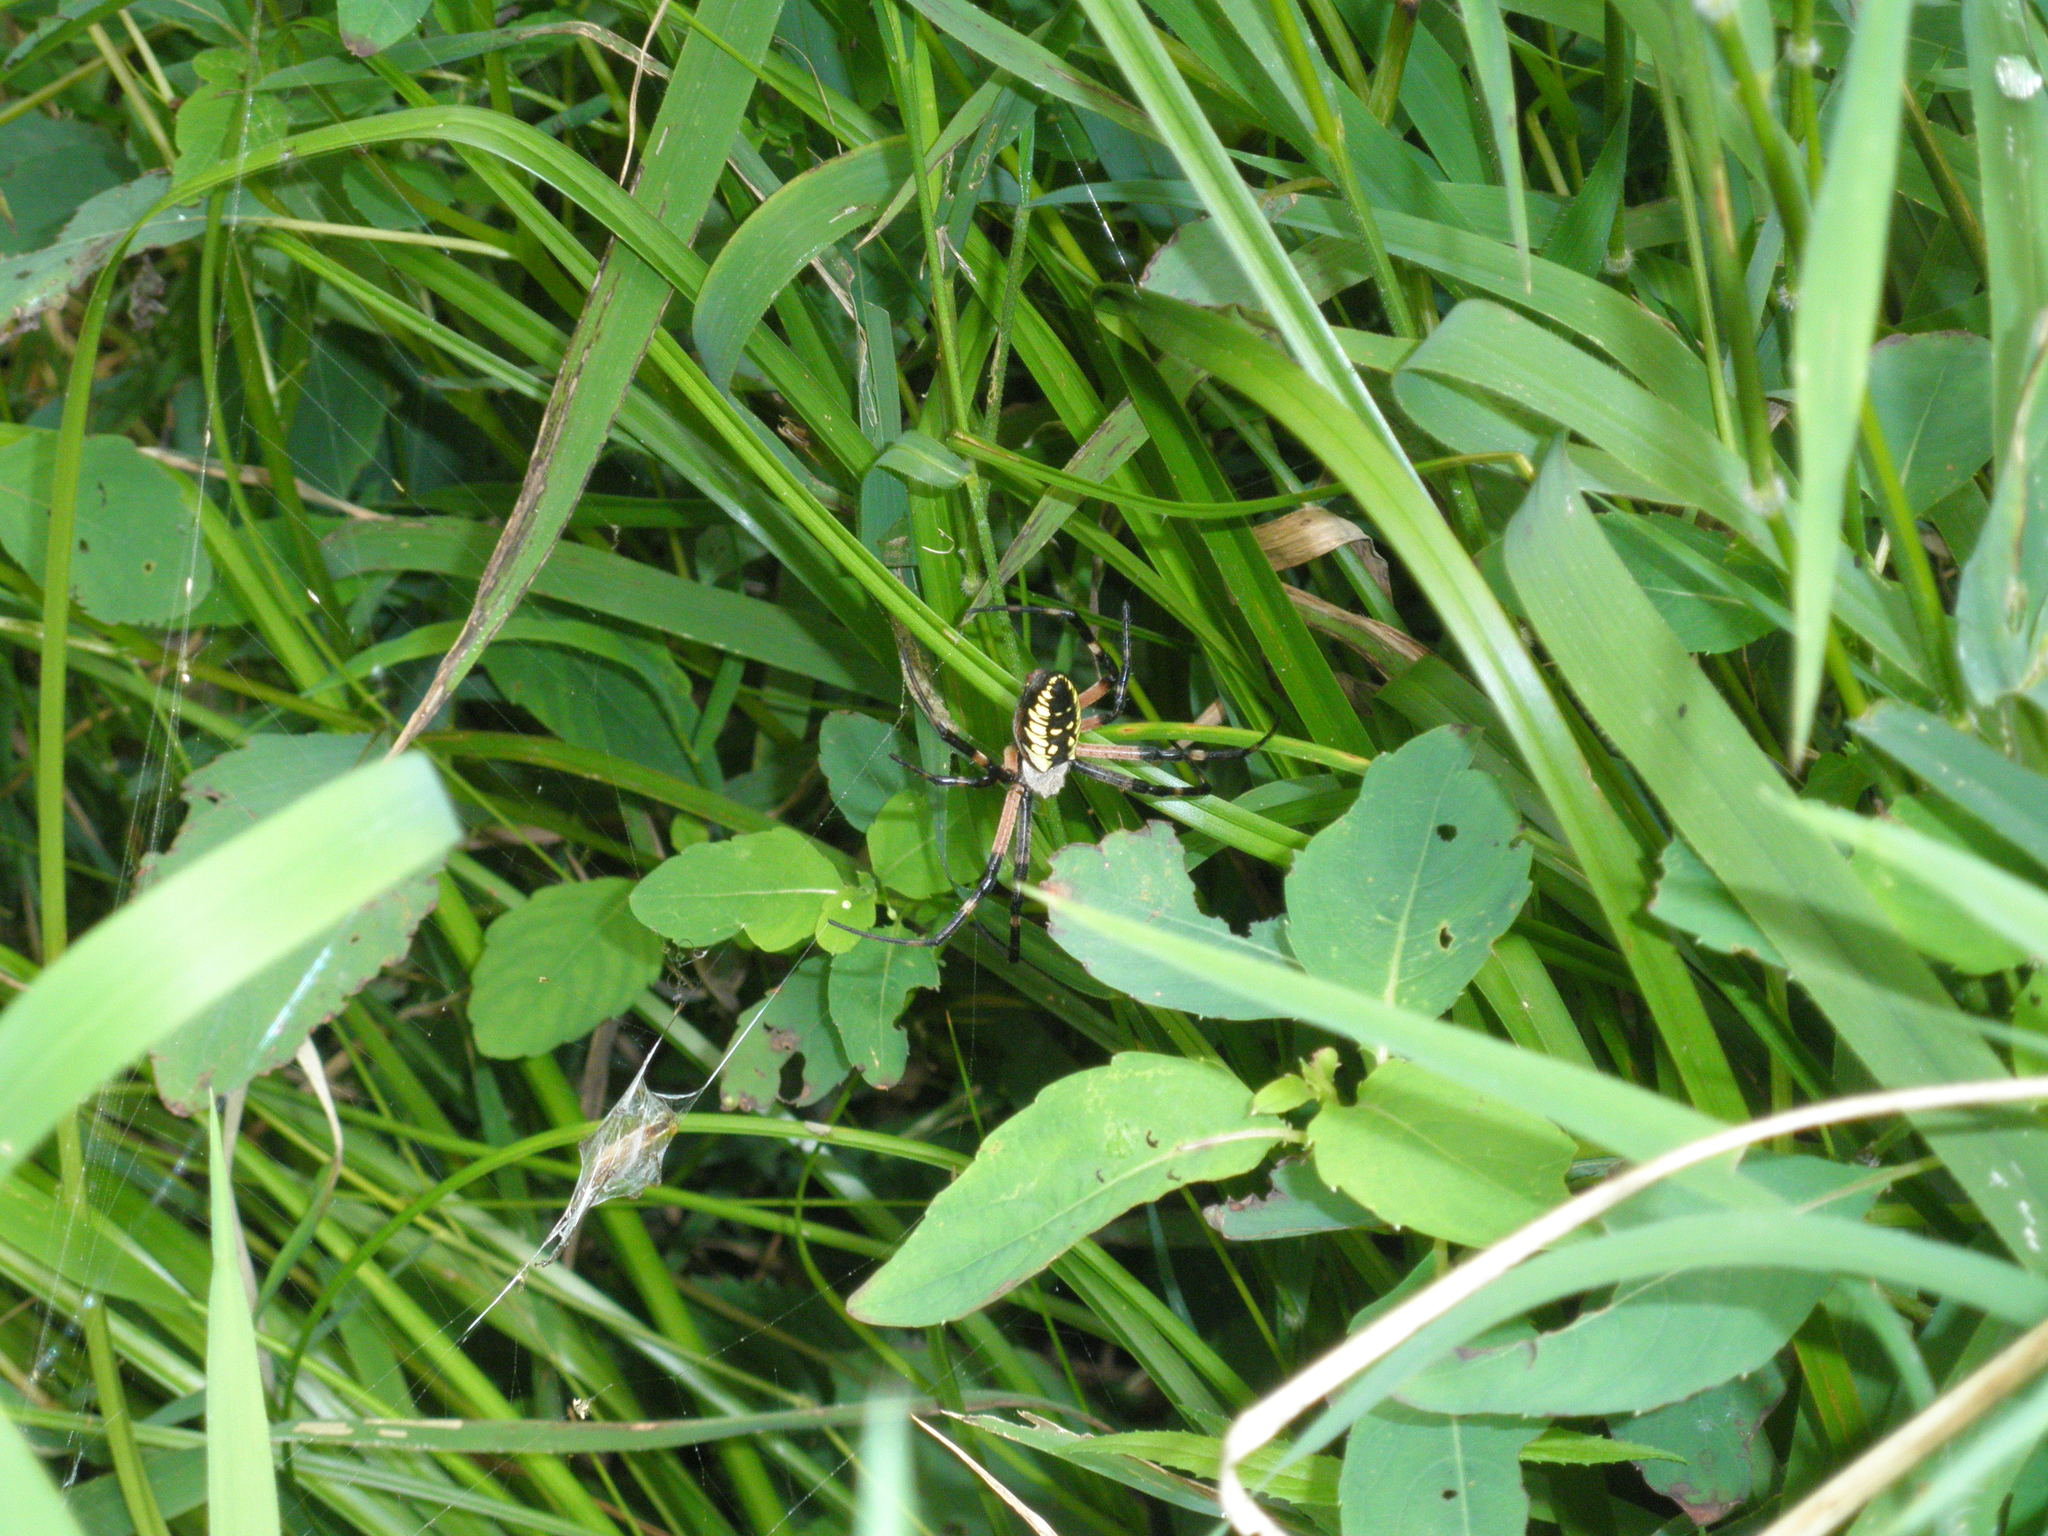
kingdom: Animalia
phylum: Arthropoda
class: Arachnida
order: Araneae
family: Araneidae
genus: Argiope
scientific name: Argiope aurantia
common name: Orb weavers
